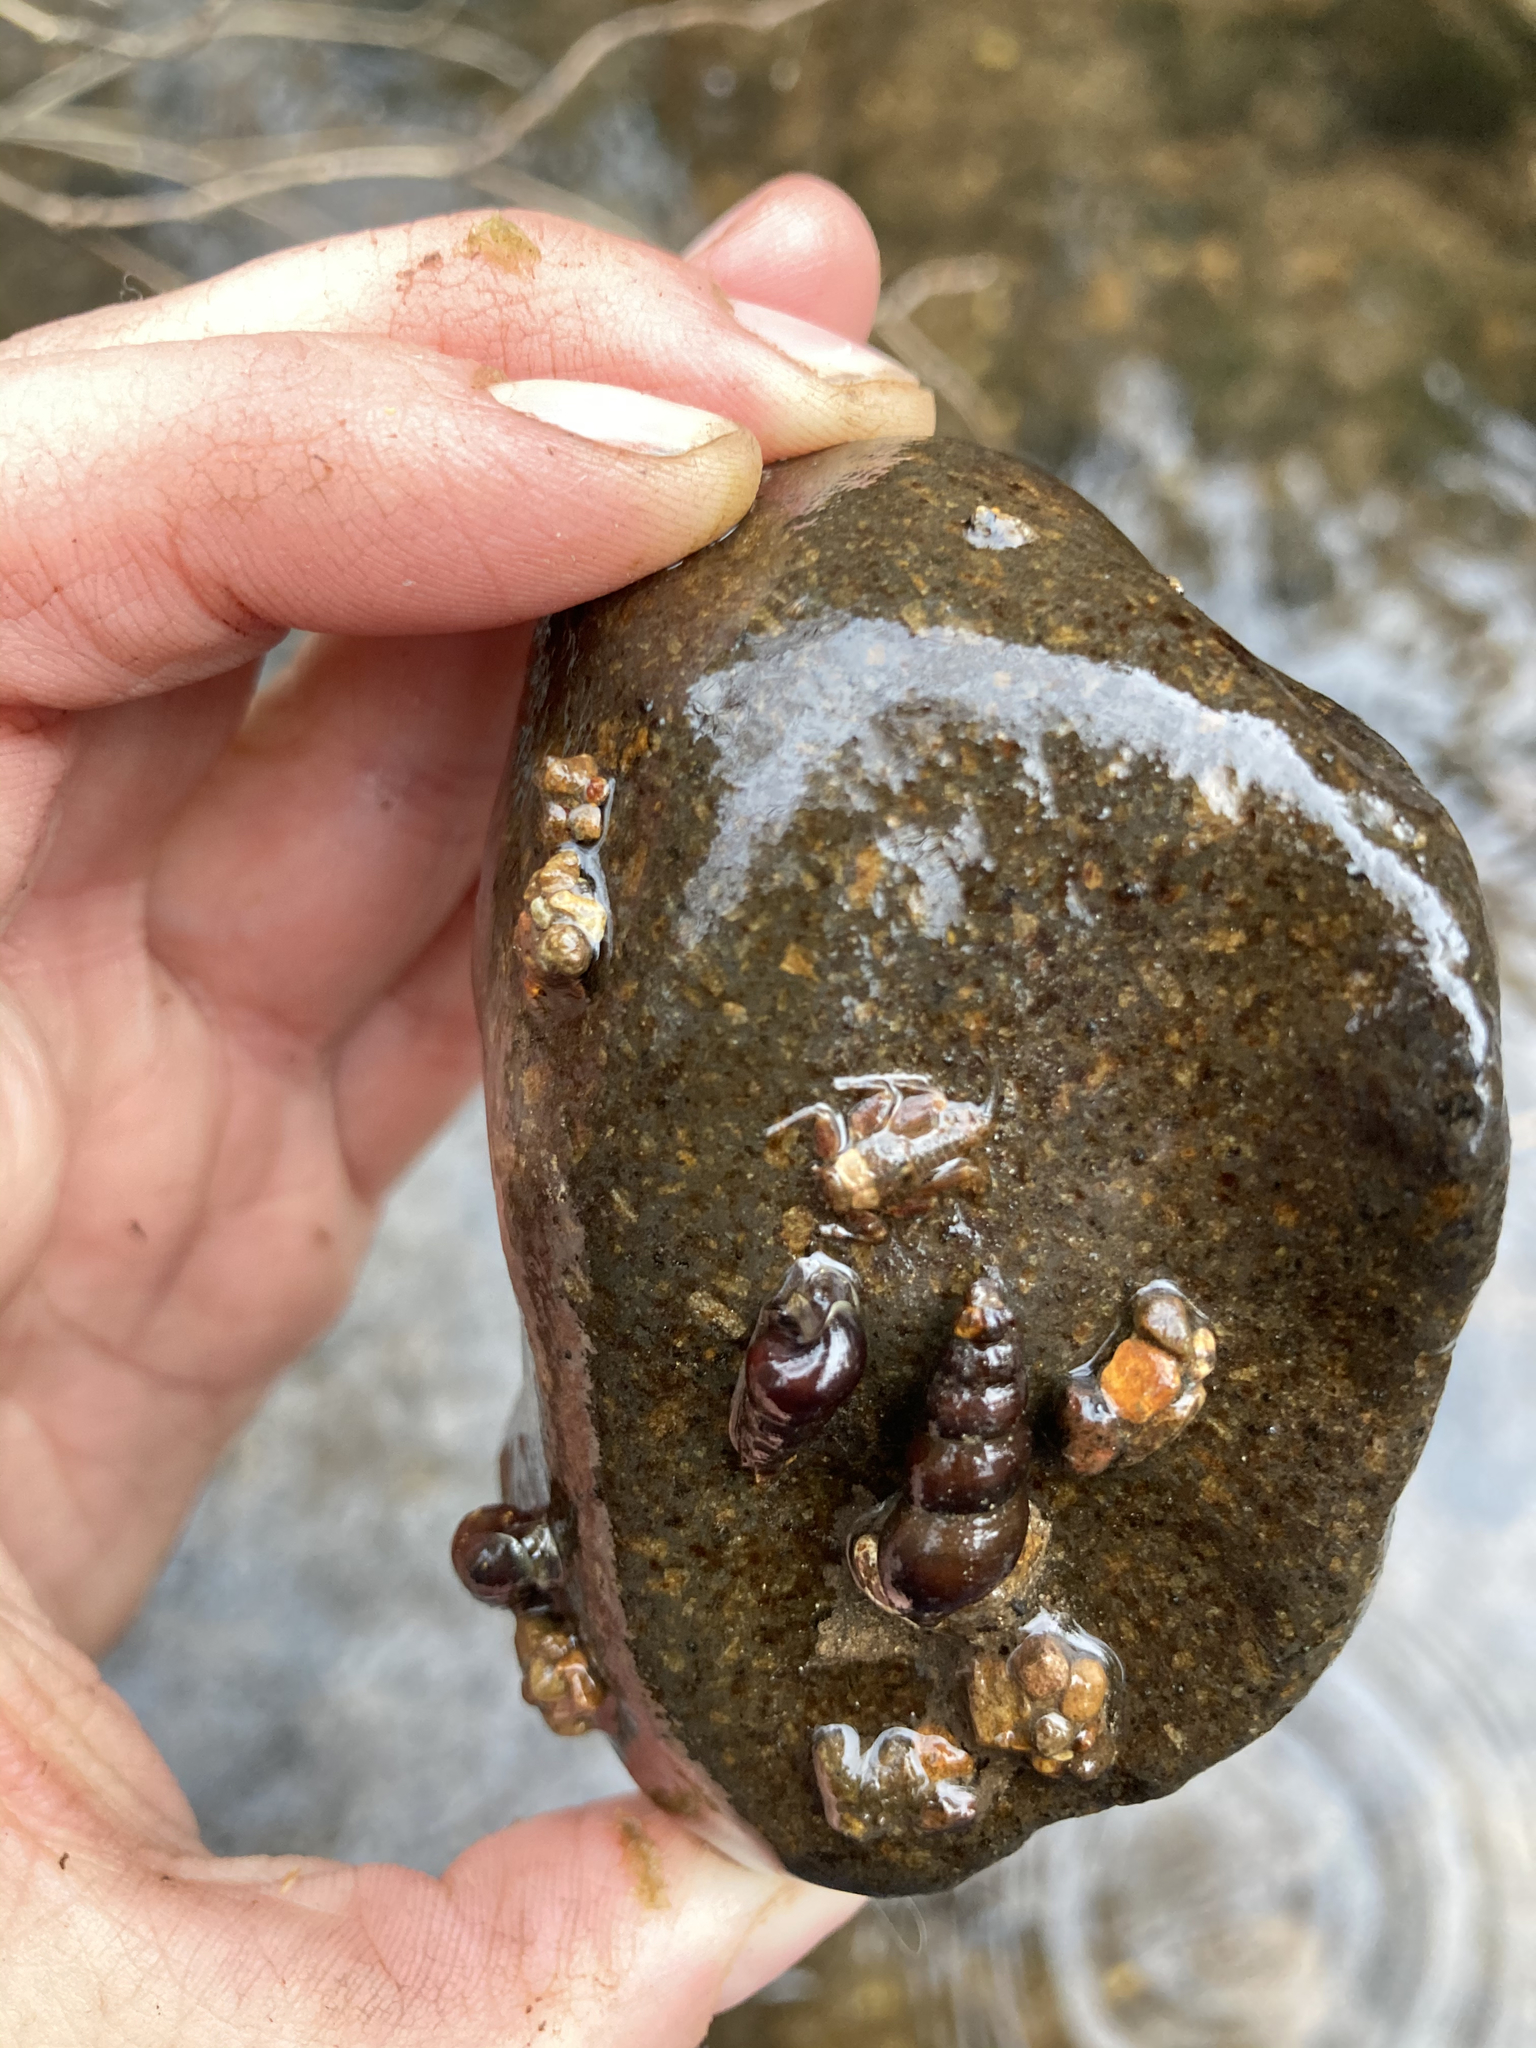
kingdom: Animalia
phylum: Mollusca
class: Gastropoda
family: Semisulcospiridae
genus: Juga
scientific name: Juga plicifera
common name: Pleated juga
